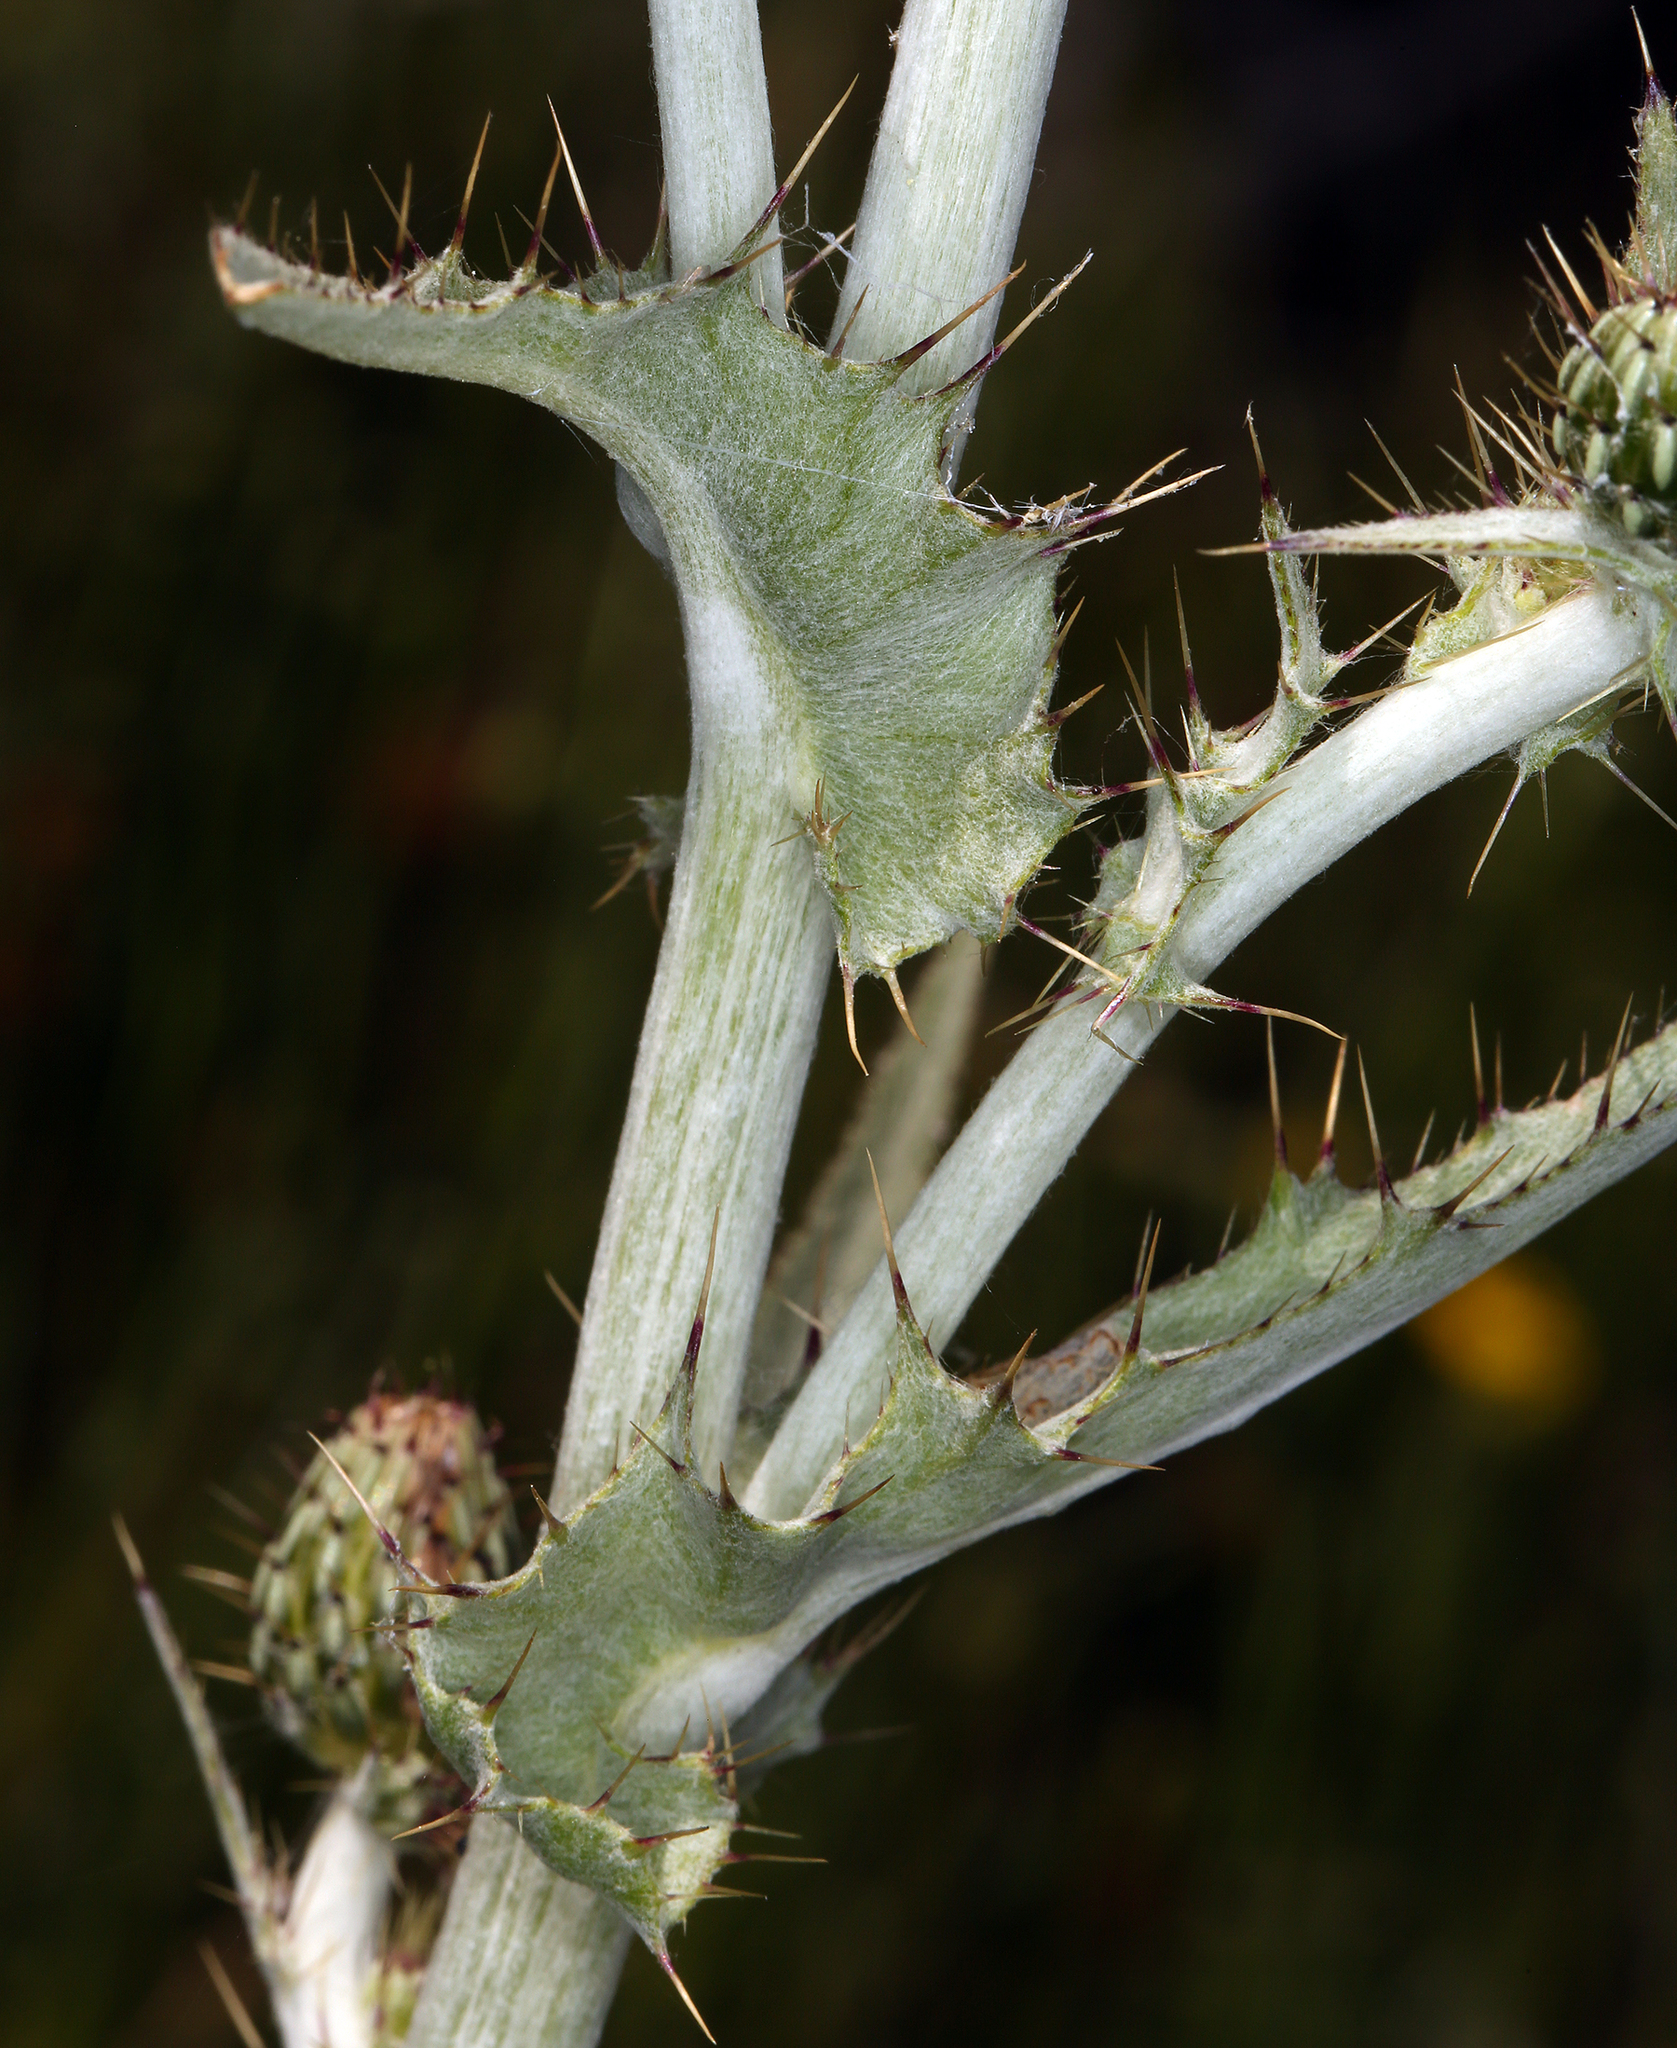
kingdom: Plantae
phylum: Tracheophyta
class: Magnoliopsida
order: Asterales
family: Asteraceae
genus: Cirsium
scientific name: Cirsium douglasii
